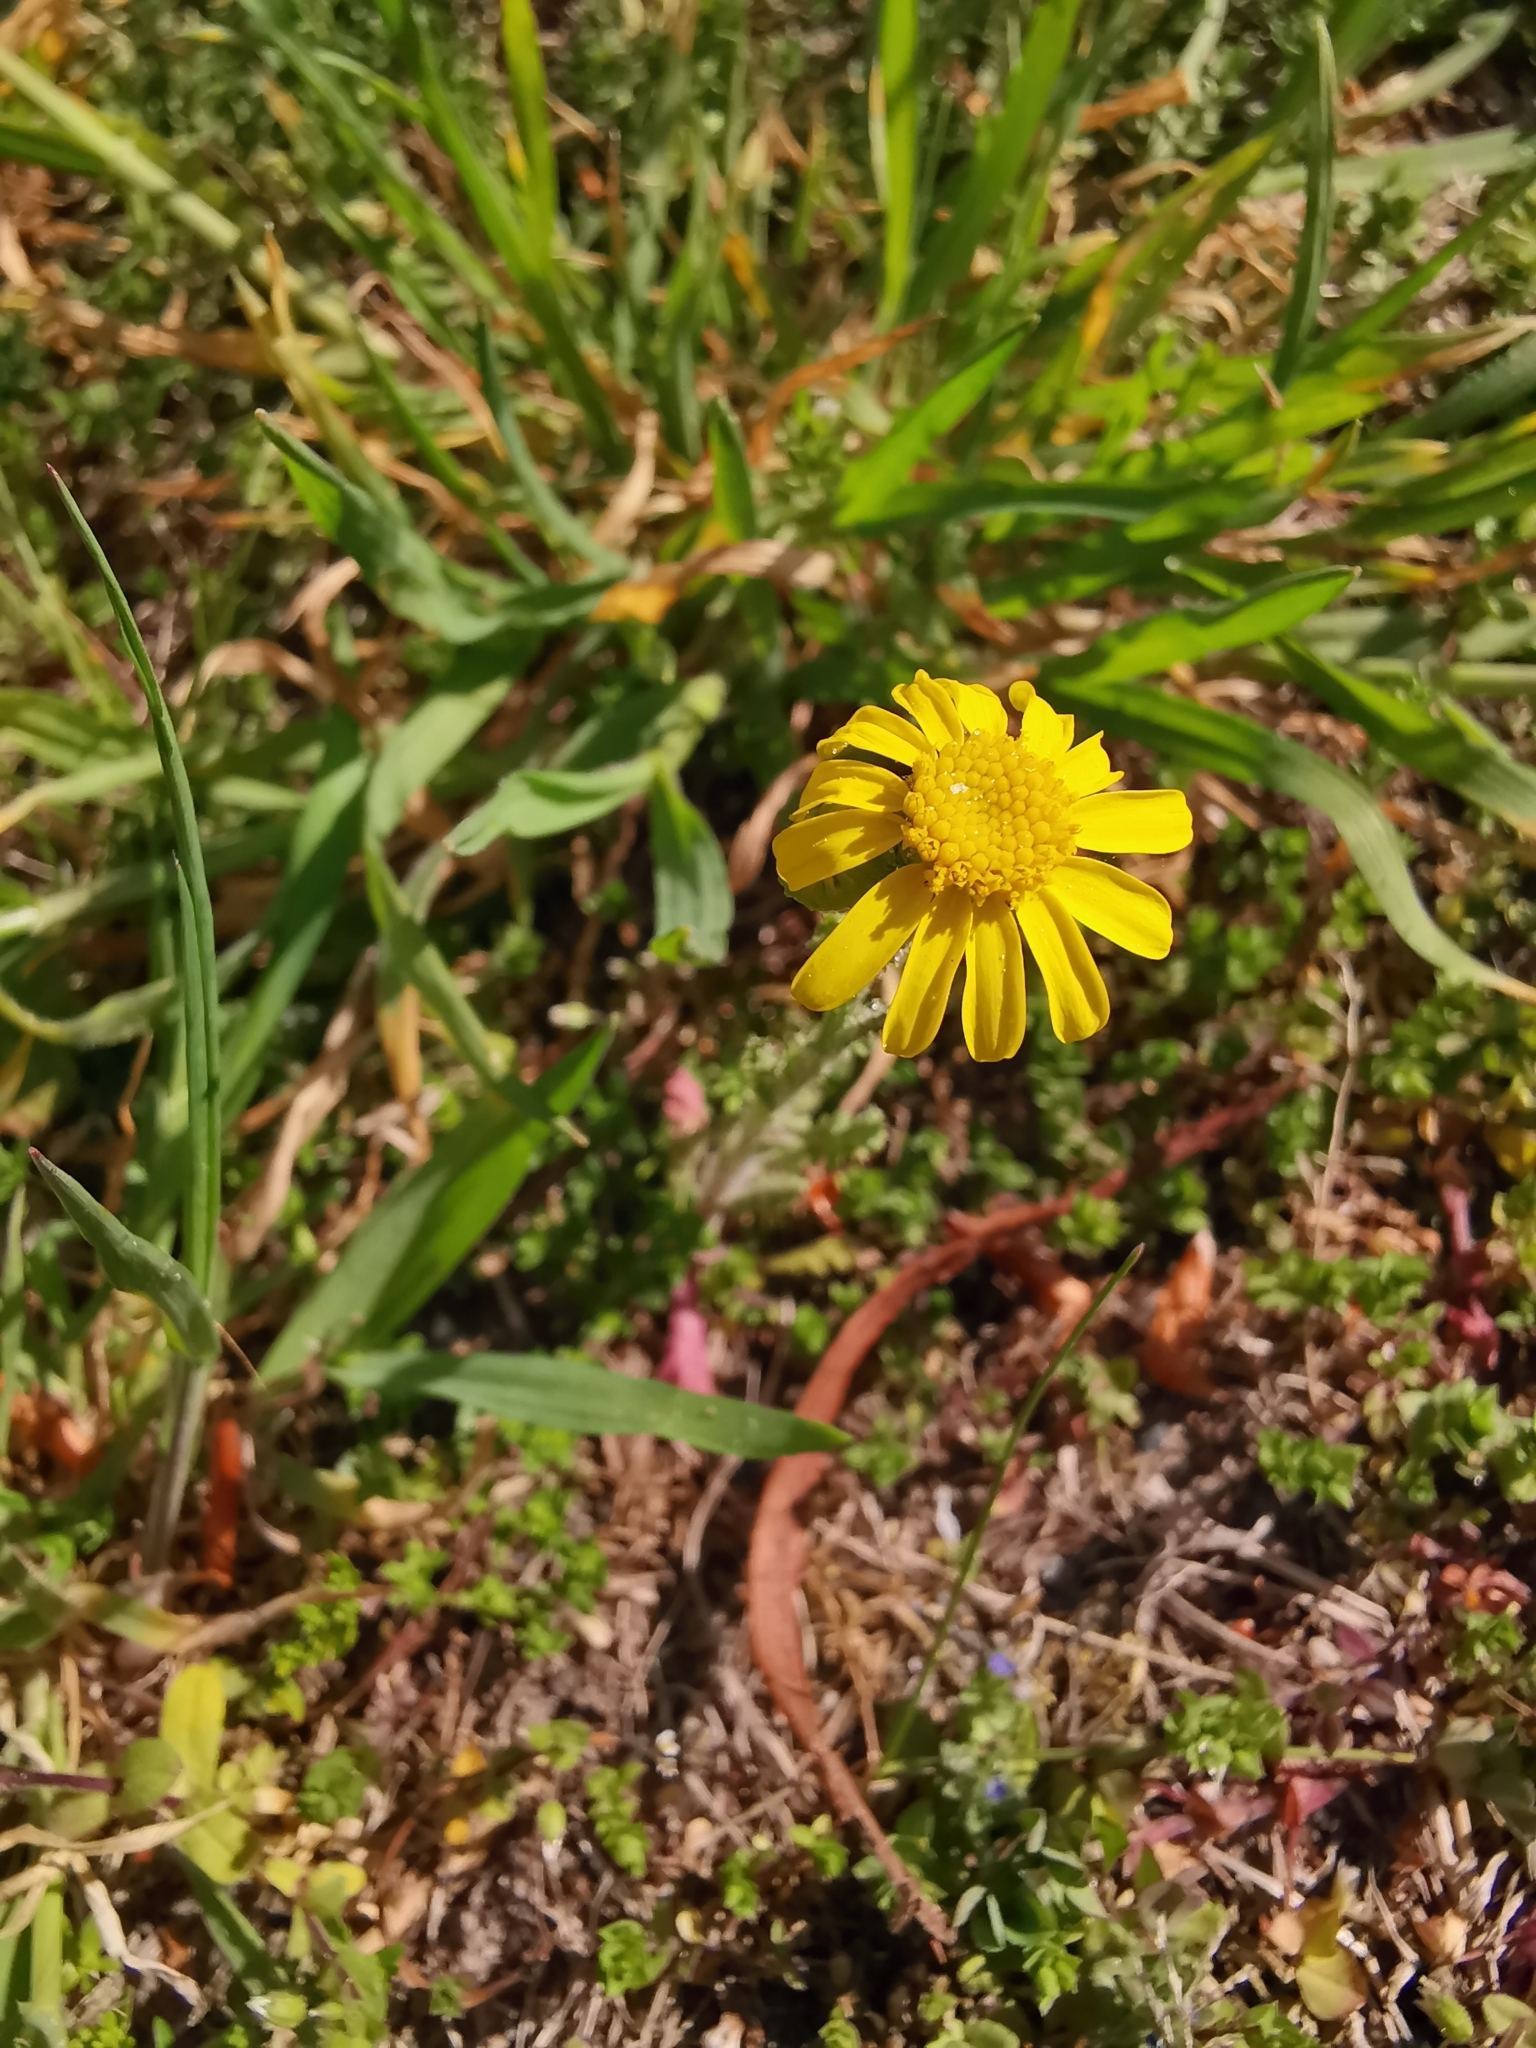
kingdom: Plantae
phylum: Tracheophyta
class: Magnoliopsida
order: Asterales
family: Asteraceae
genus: Senecio
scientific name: Senecio vernalis
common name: Eastern groundsel
